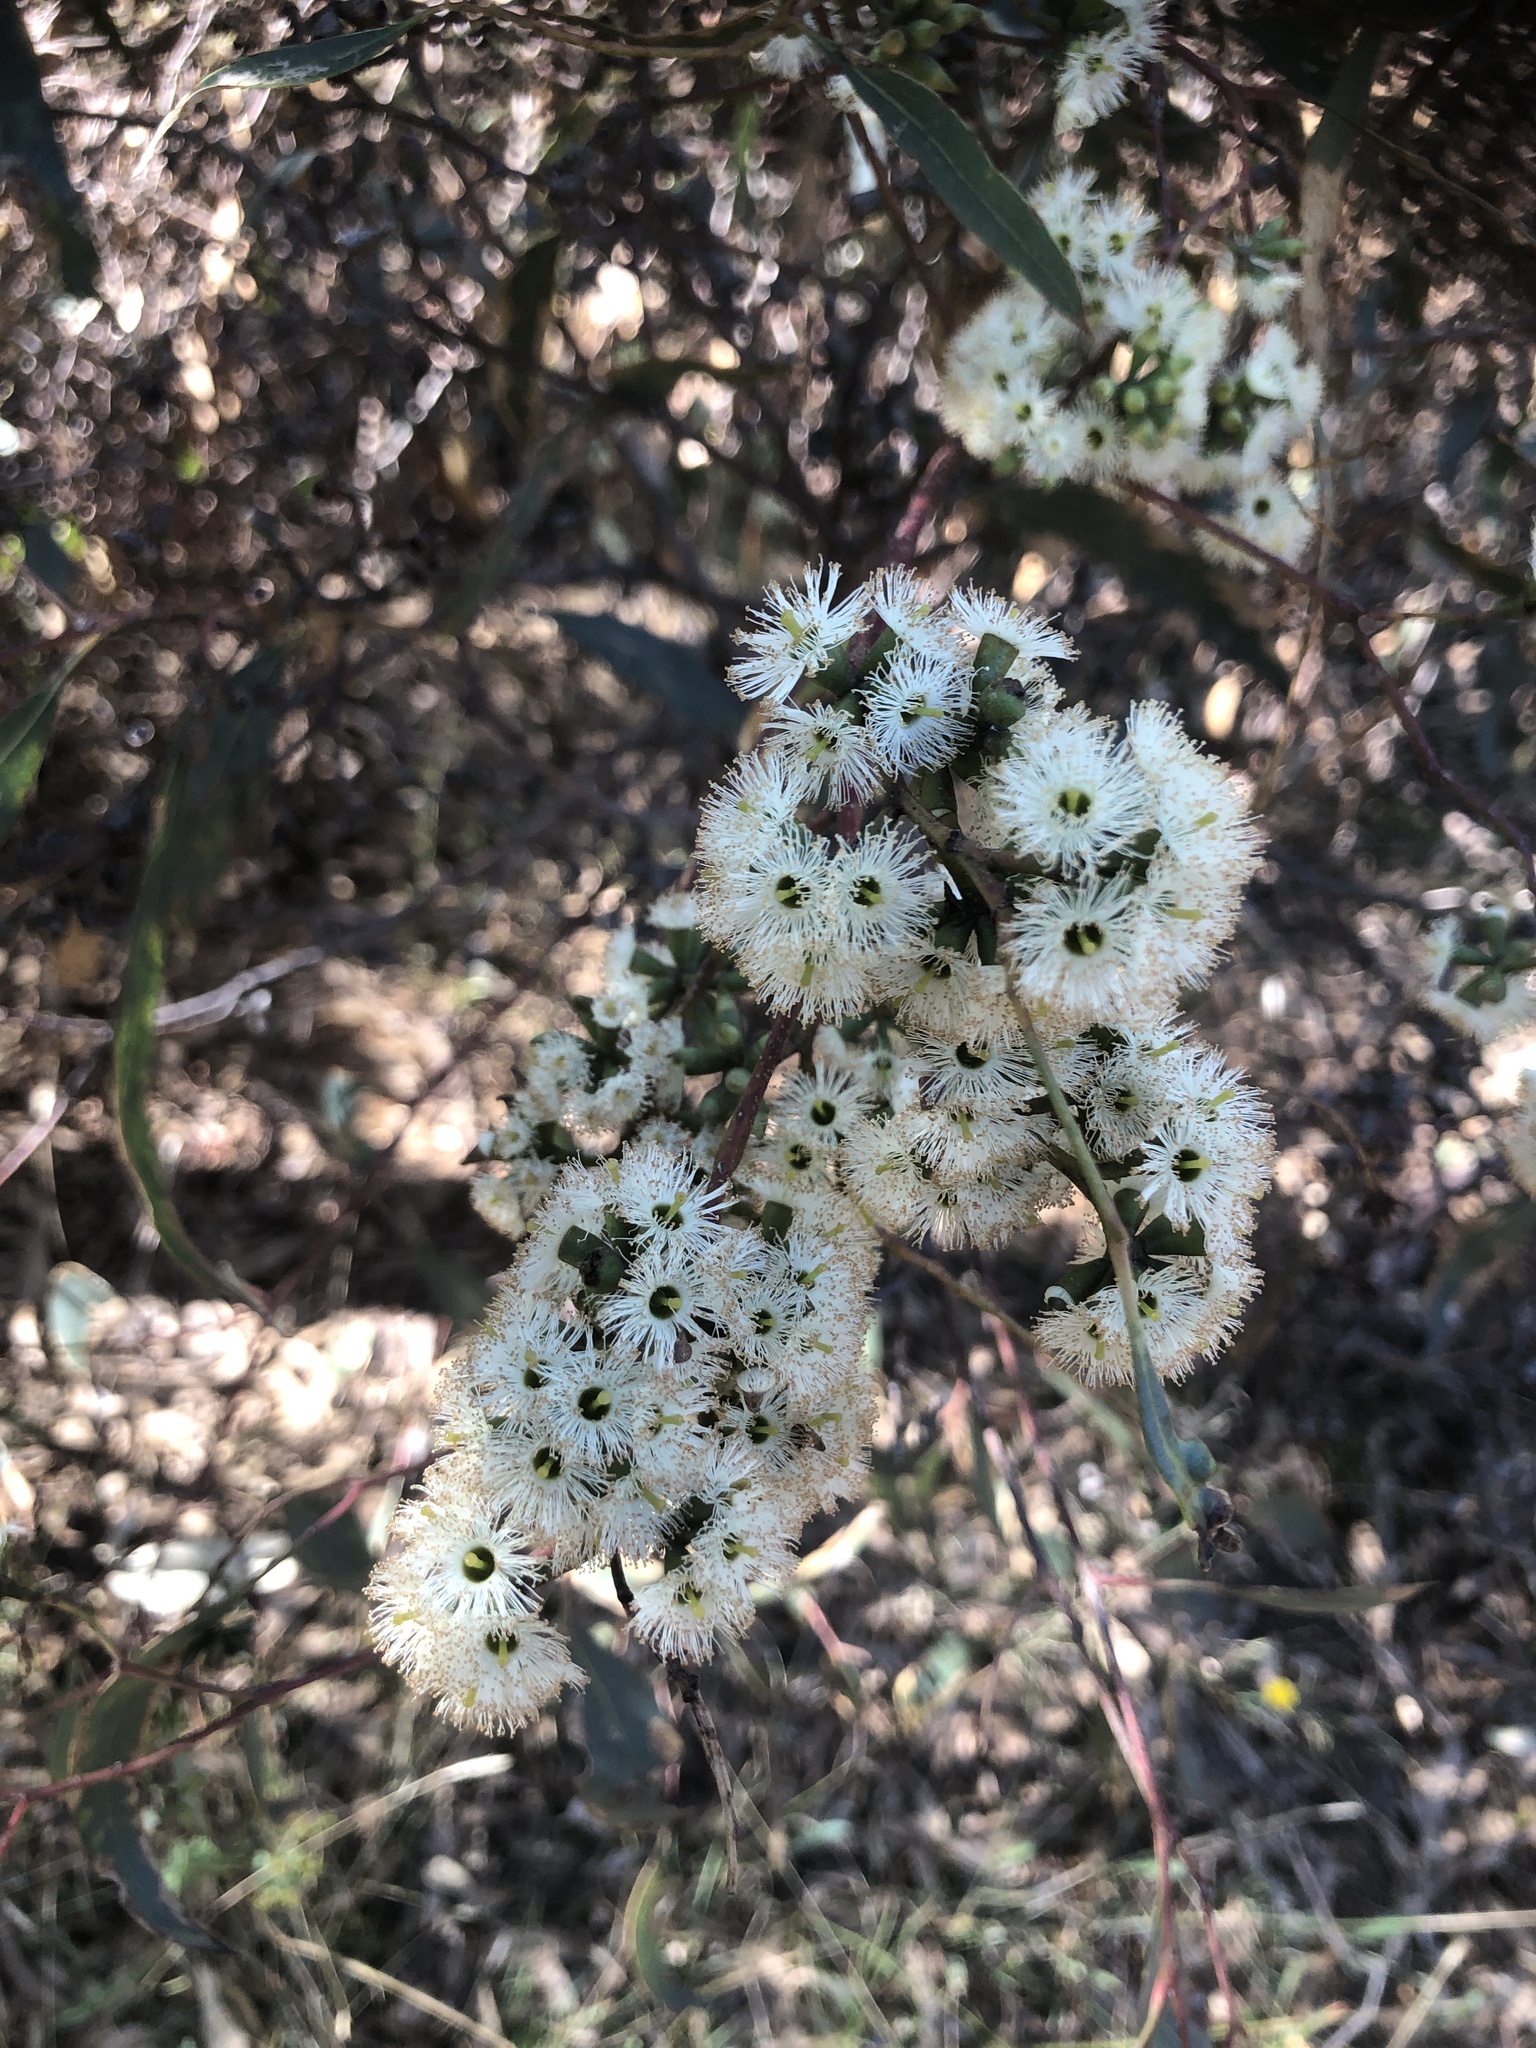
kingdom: Plantae
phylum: Tracheophyta
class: Magnoliopsida
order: Myrtales
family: Myrtaceae
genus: Eucalyptus
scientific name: Eucalyptus microcarpa
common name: Grey-box
